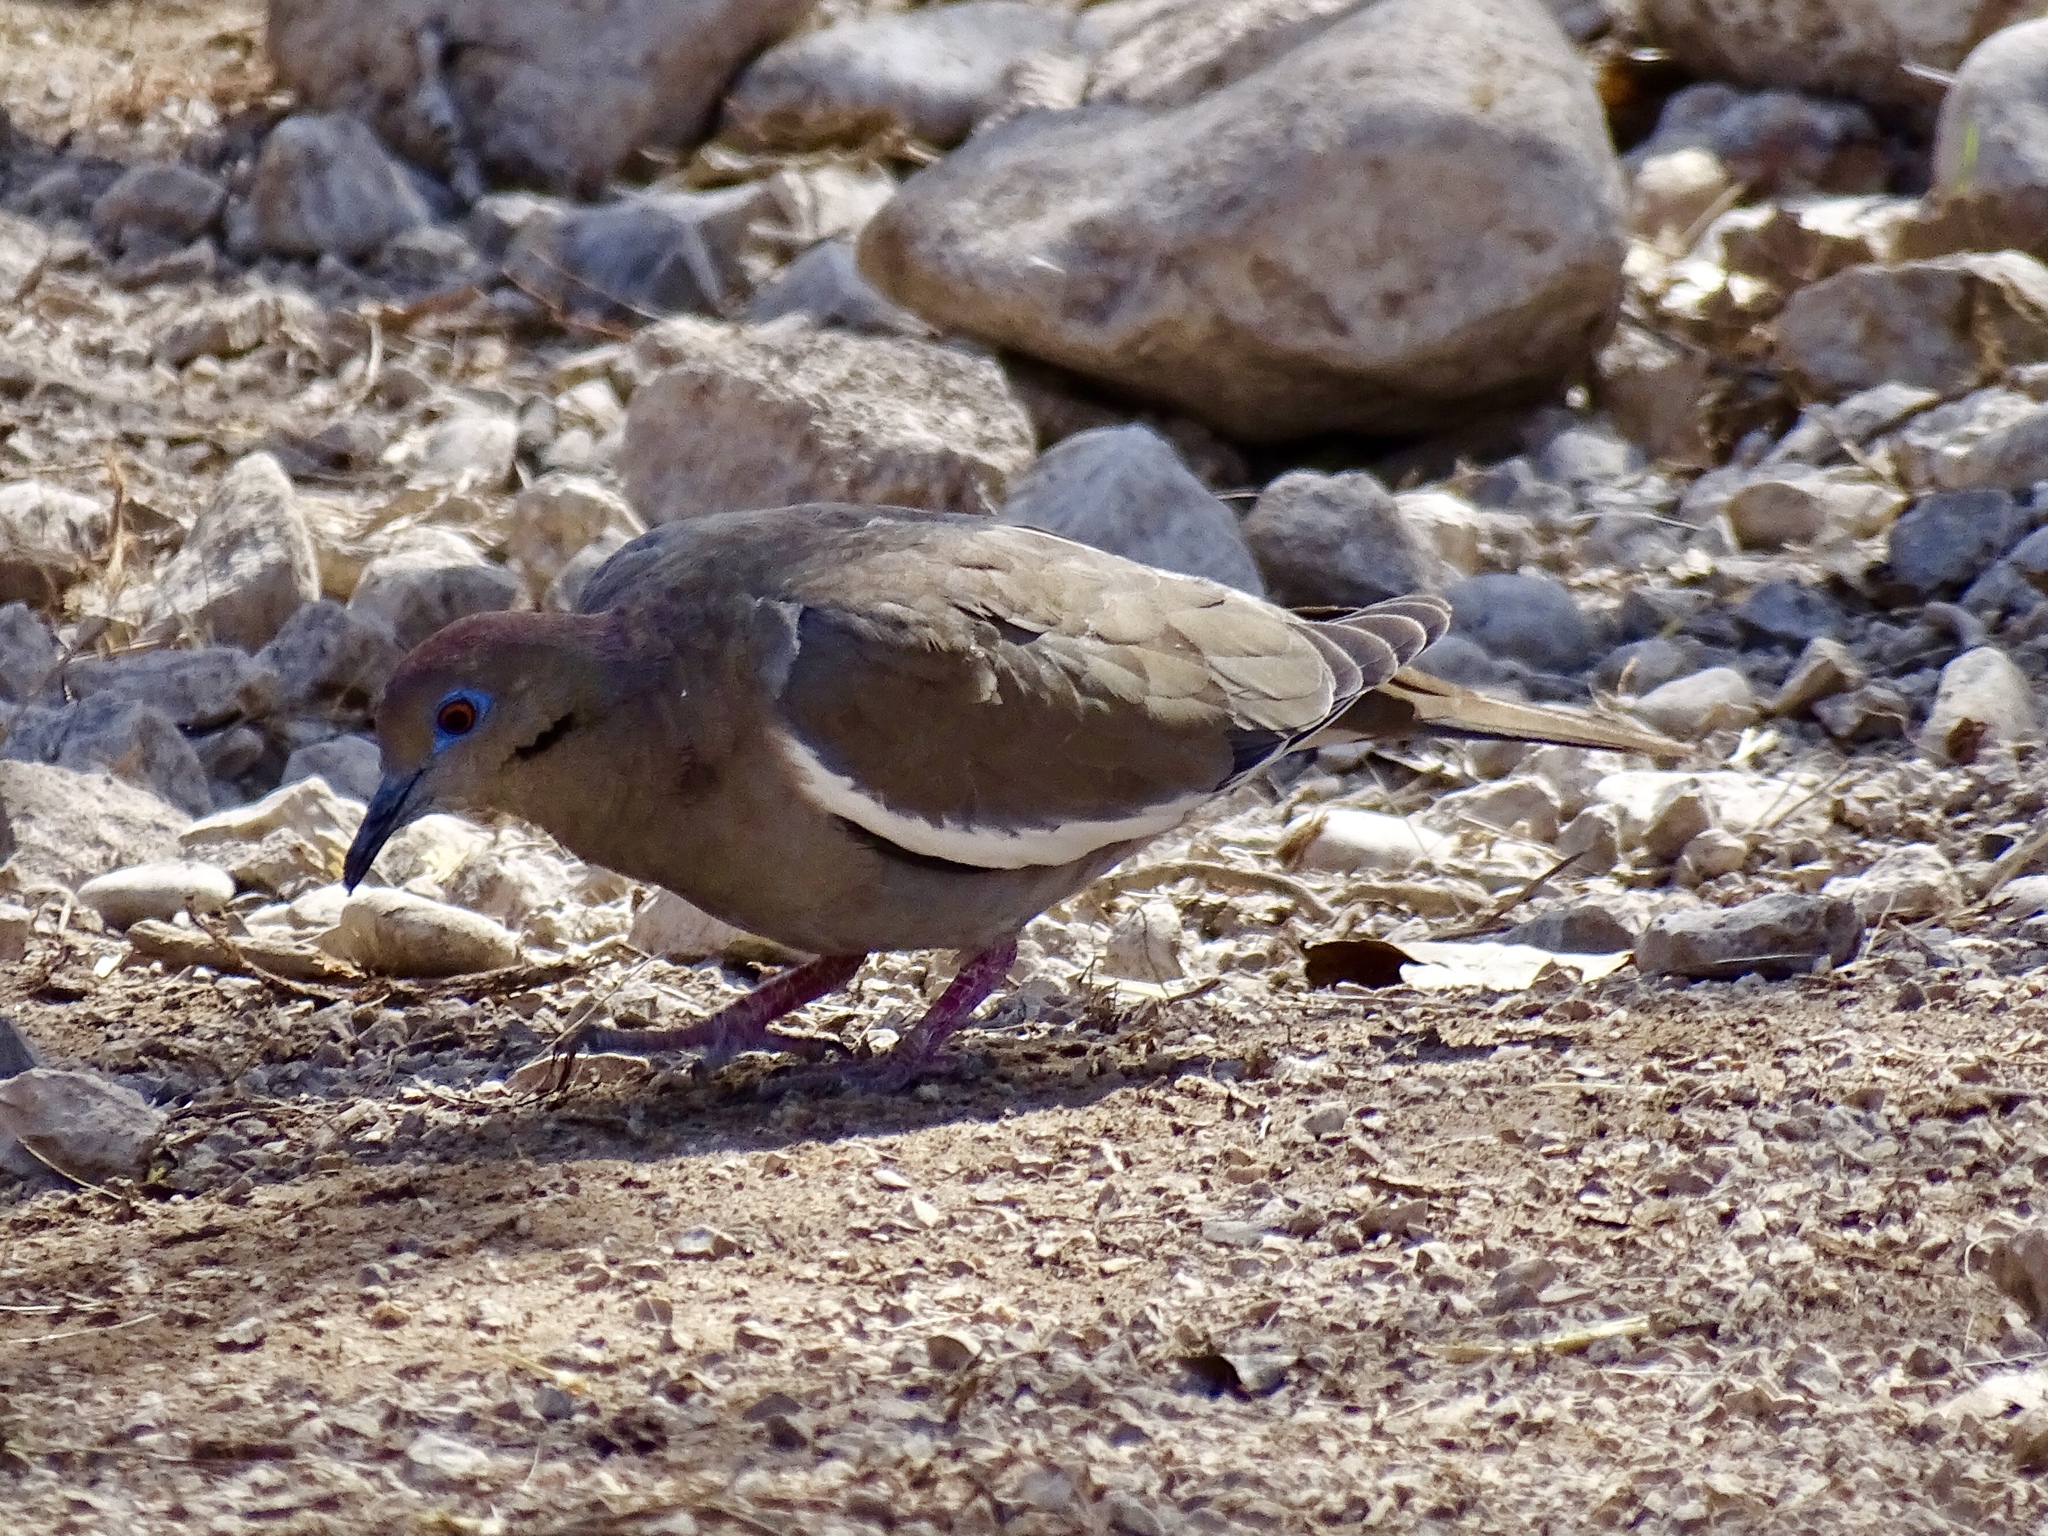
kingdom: Animalia
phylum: Chordata
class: Aves
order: Columbiformes
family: Columbidae
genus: Zenaida
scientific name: Zenaida asiatica
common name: White-winged dove
